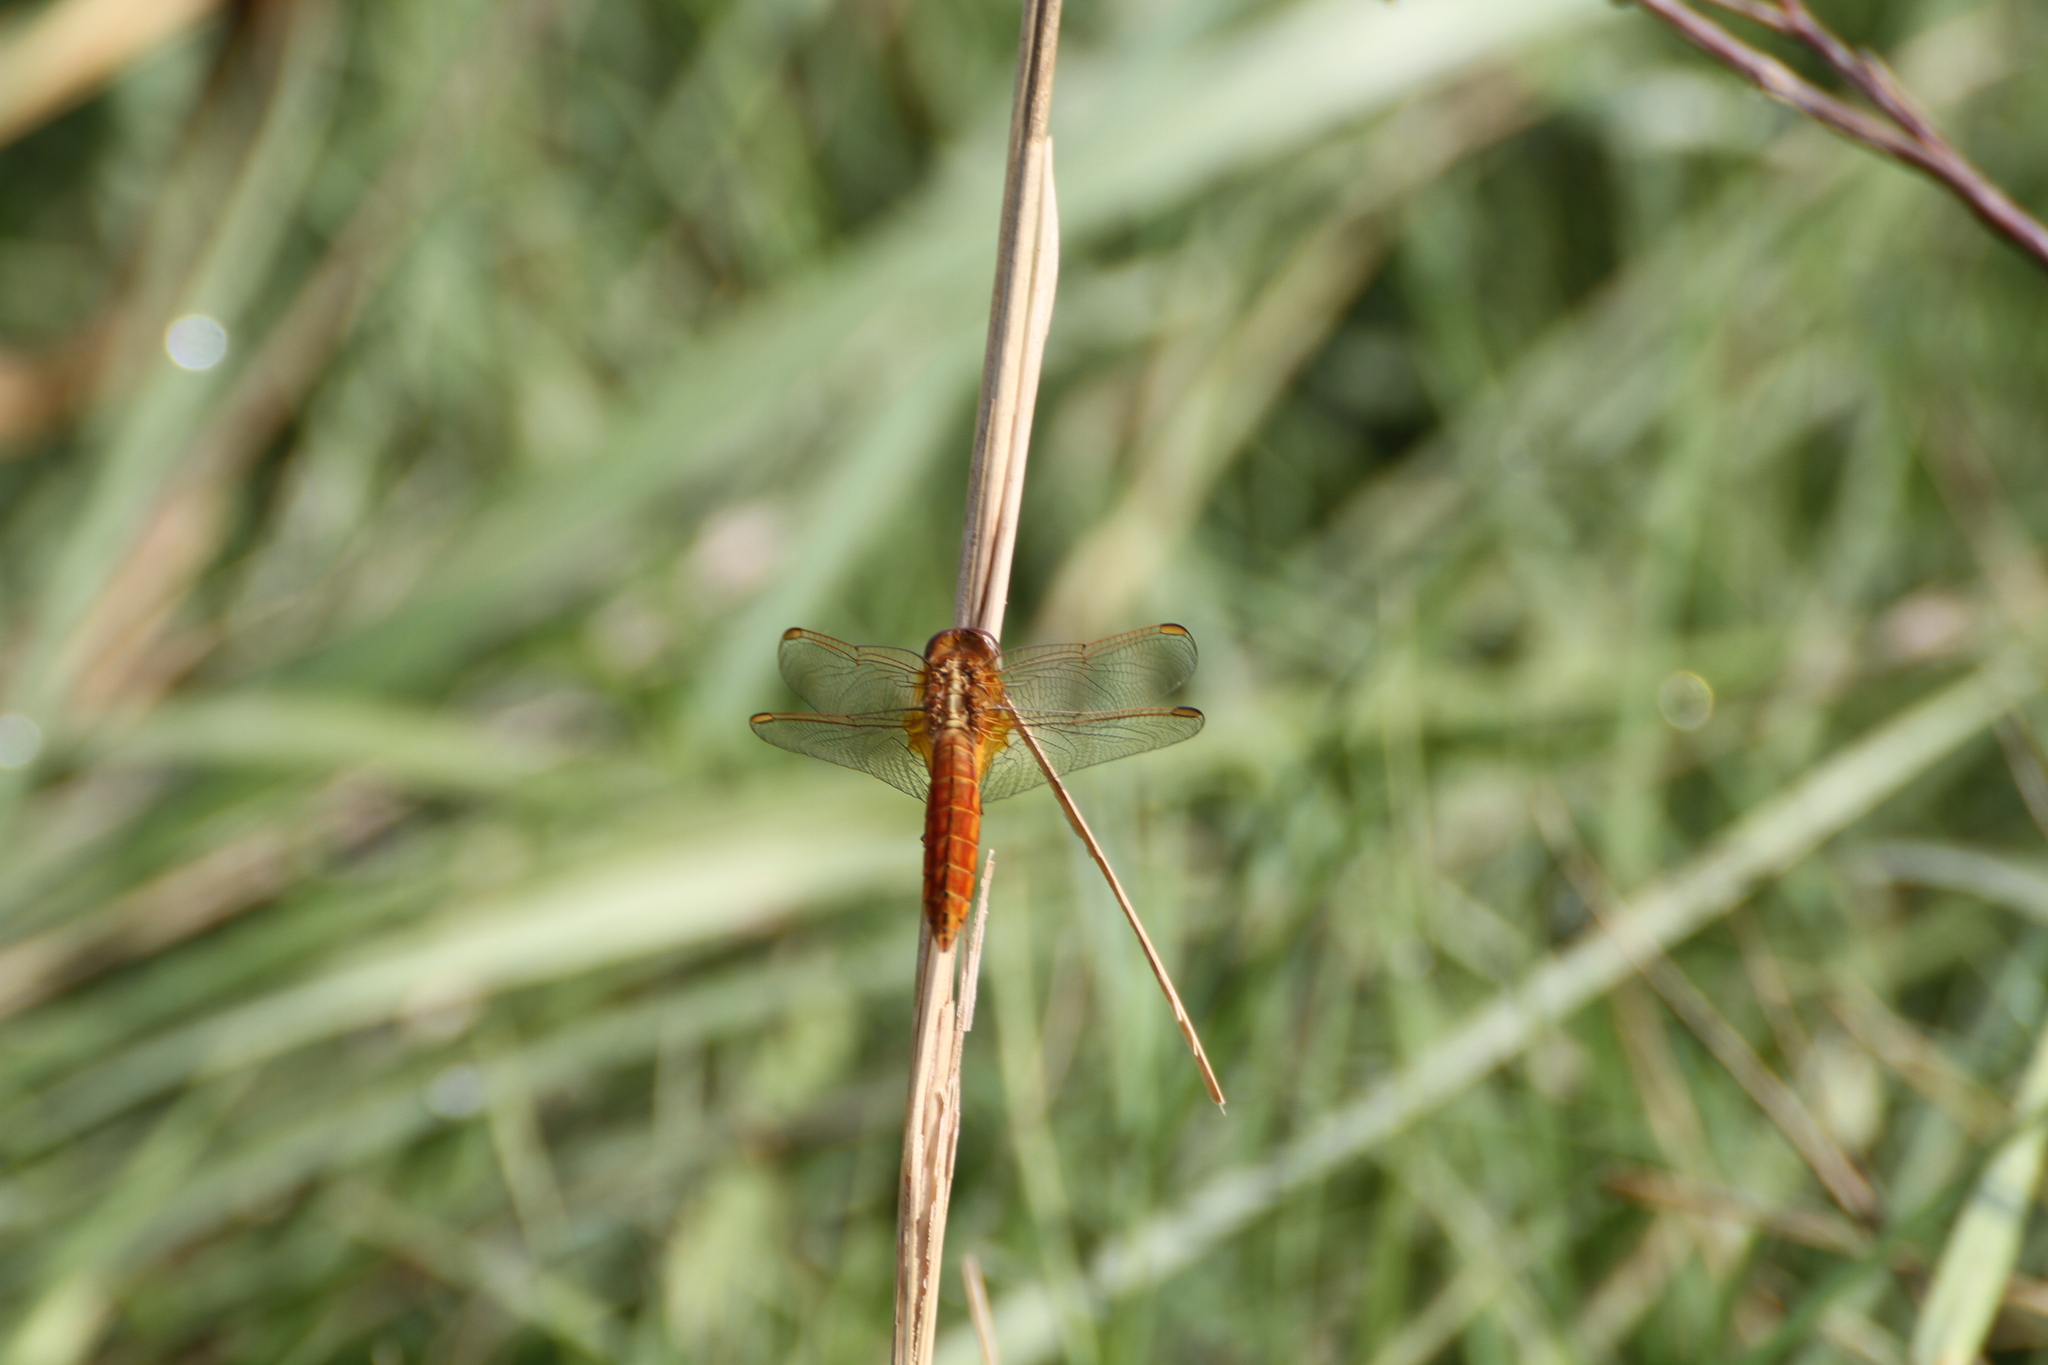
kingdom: Animalia
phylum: Arthropoda
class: Insecta
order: Odonata
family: Libellulidae
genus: Crocothemis
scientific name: Crocothemis erythraea
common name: Scarlet dragonfly
